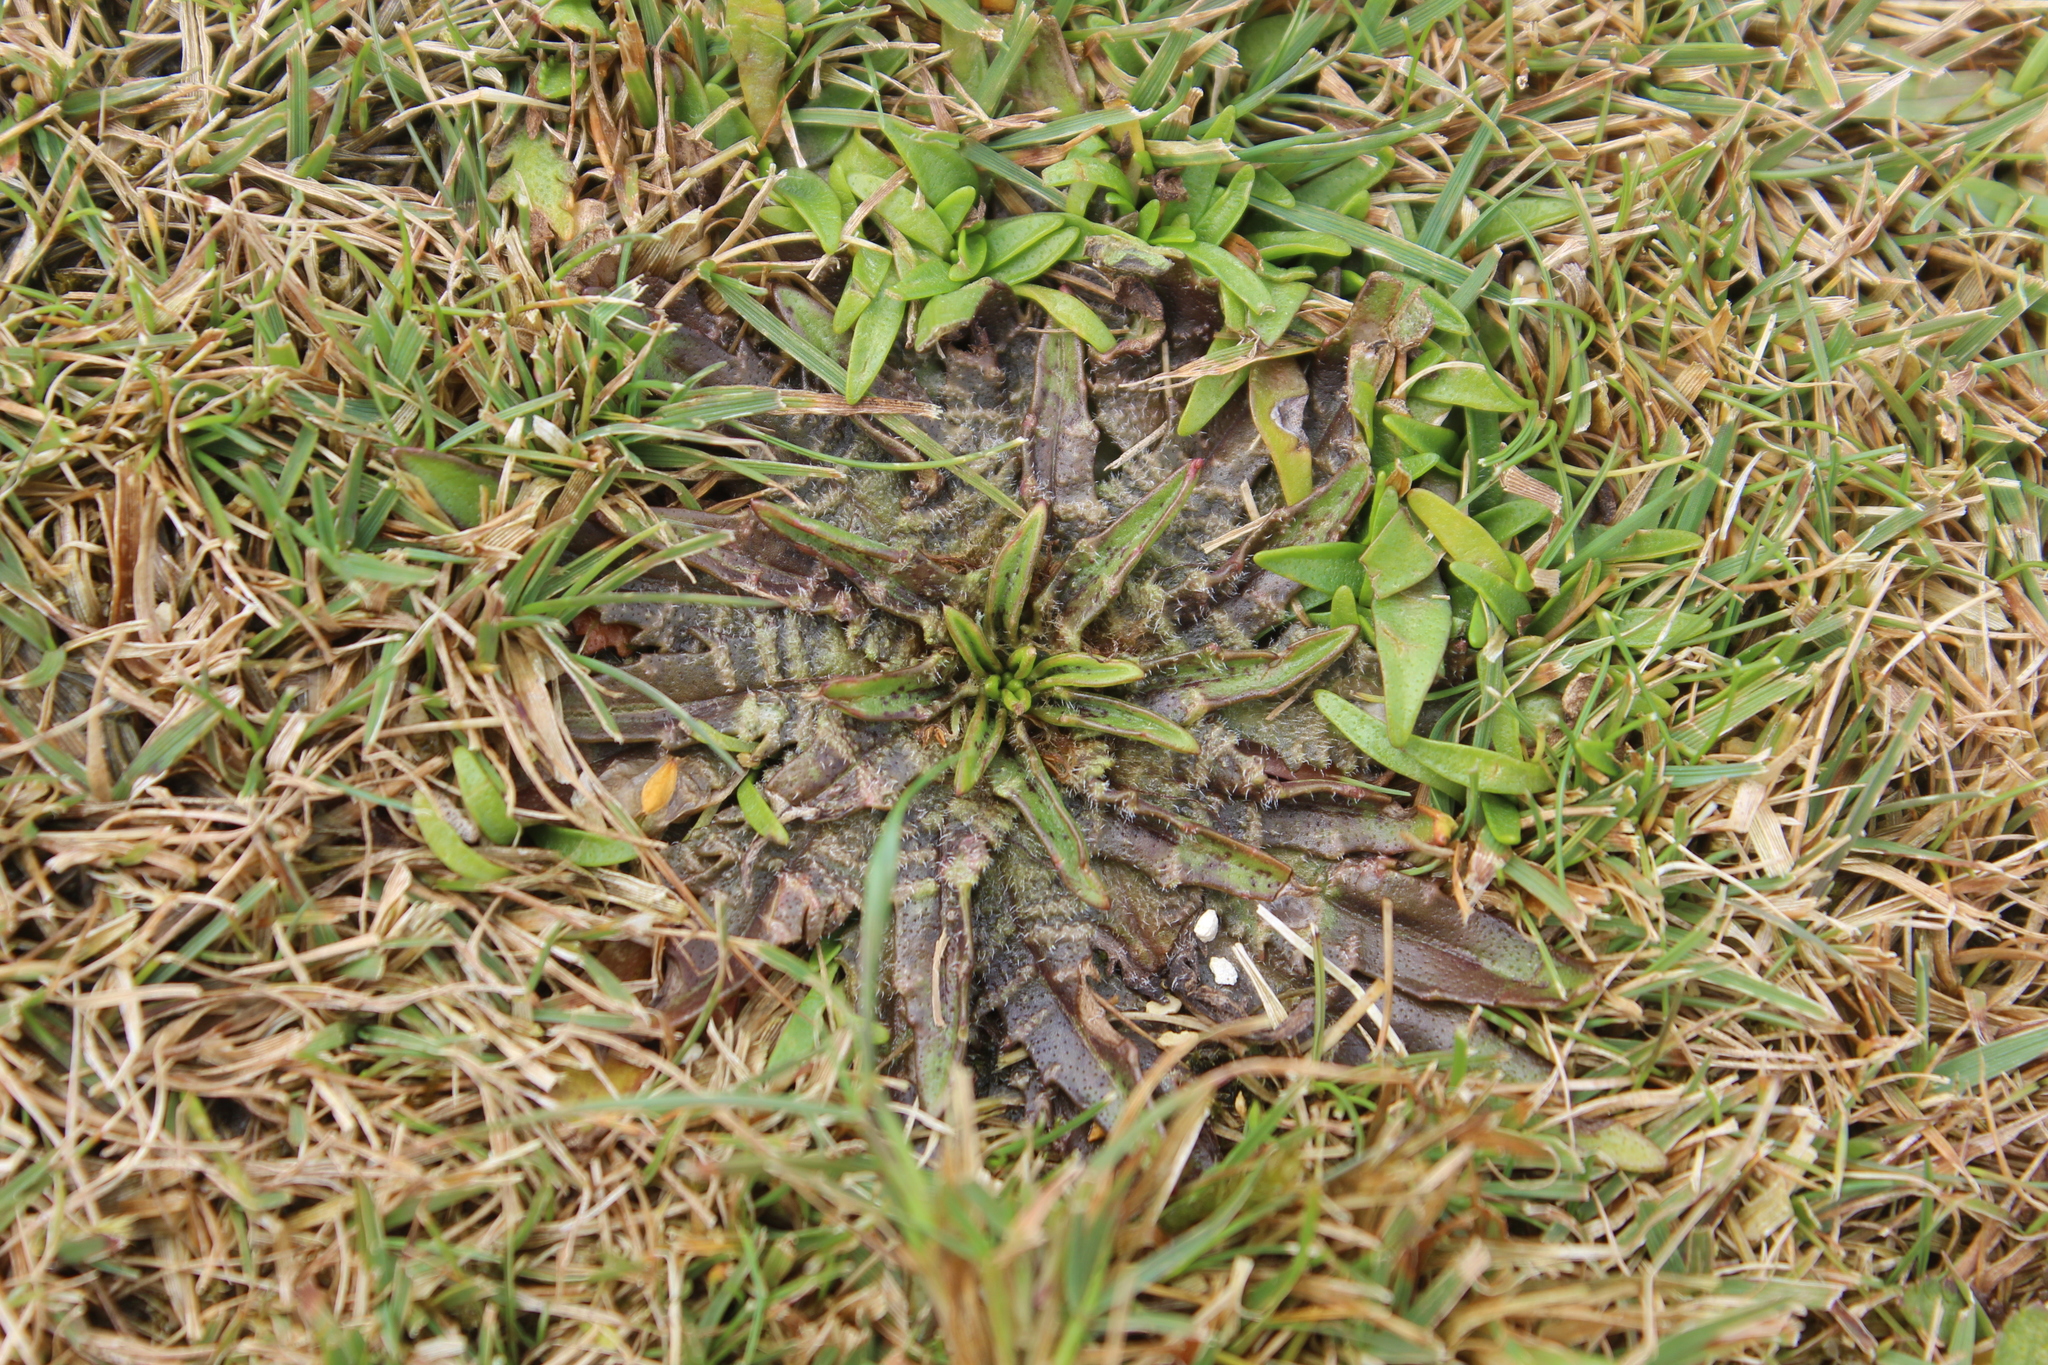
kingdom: Plantae
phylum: Tracheophyta
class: Magnoliopsida
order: Lamiales
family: Plantaginaceae
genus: Plantago
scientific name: Plantago triandra
